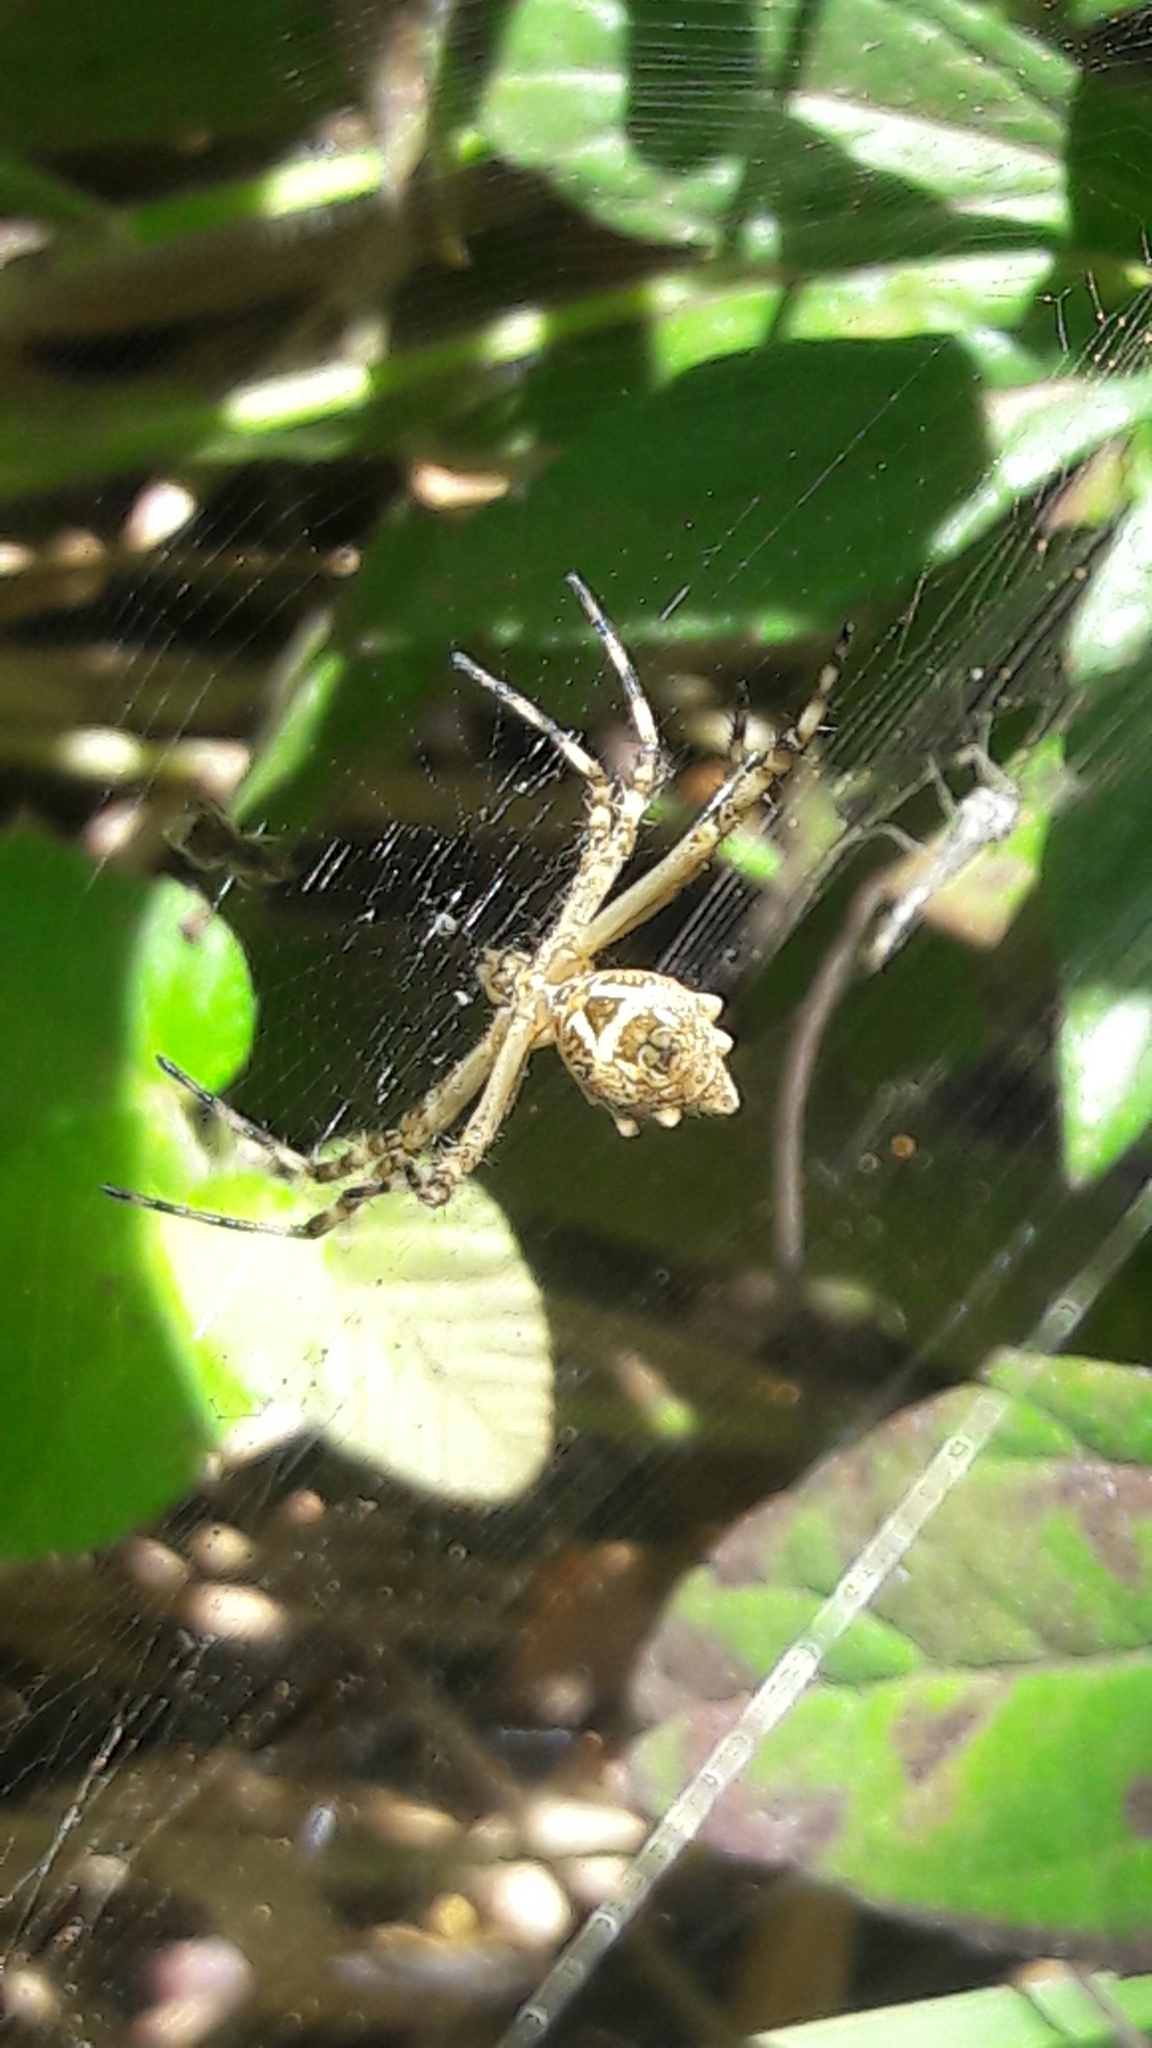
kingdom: Animalia
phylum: Arthropoda
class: Arachnida
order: Araneae
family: Araneidae
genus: Argiope
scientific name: Argiope argentata
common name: Orb weavers
